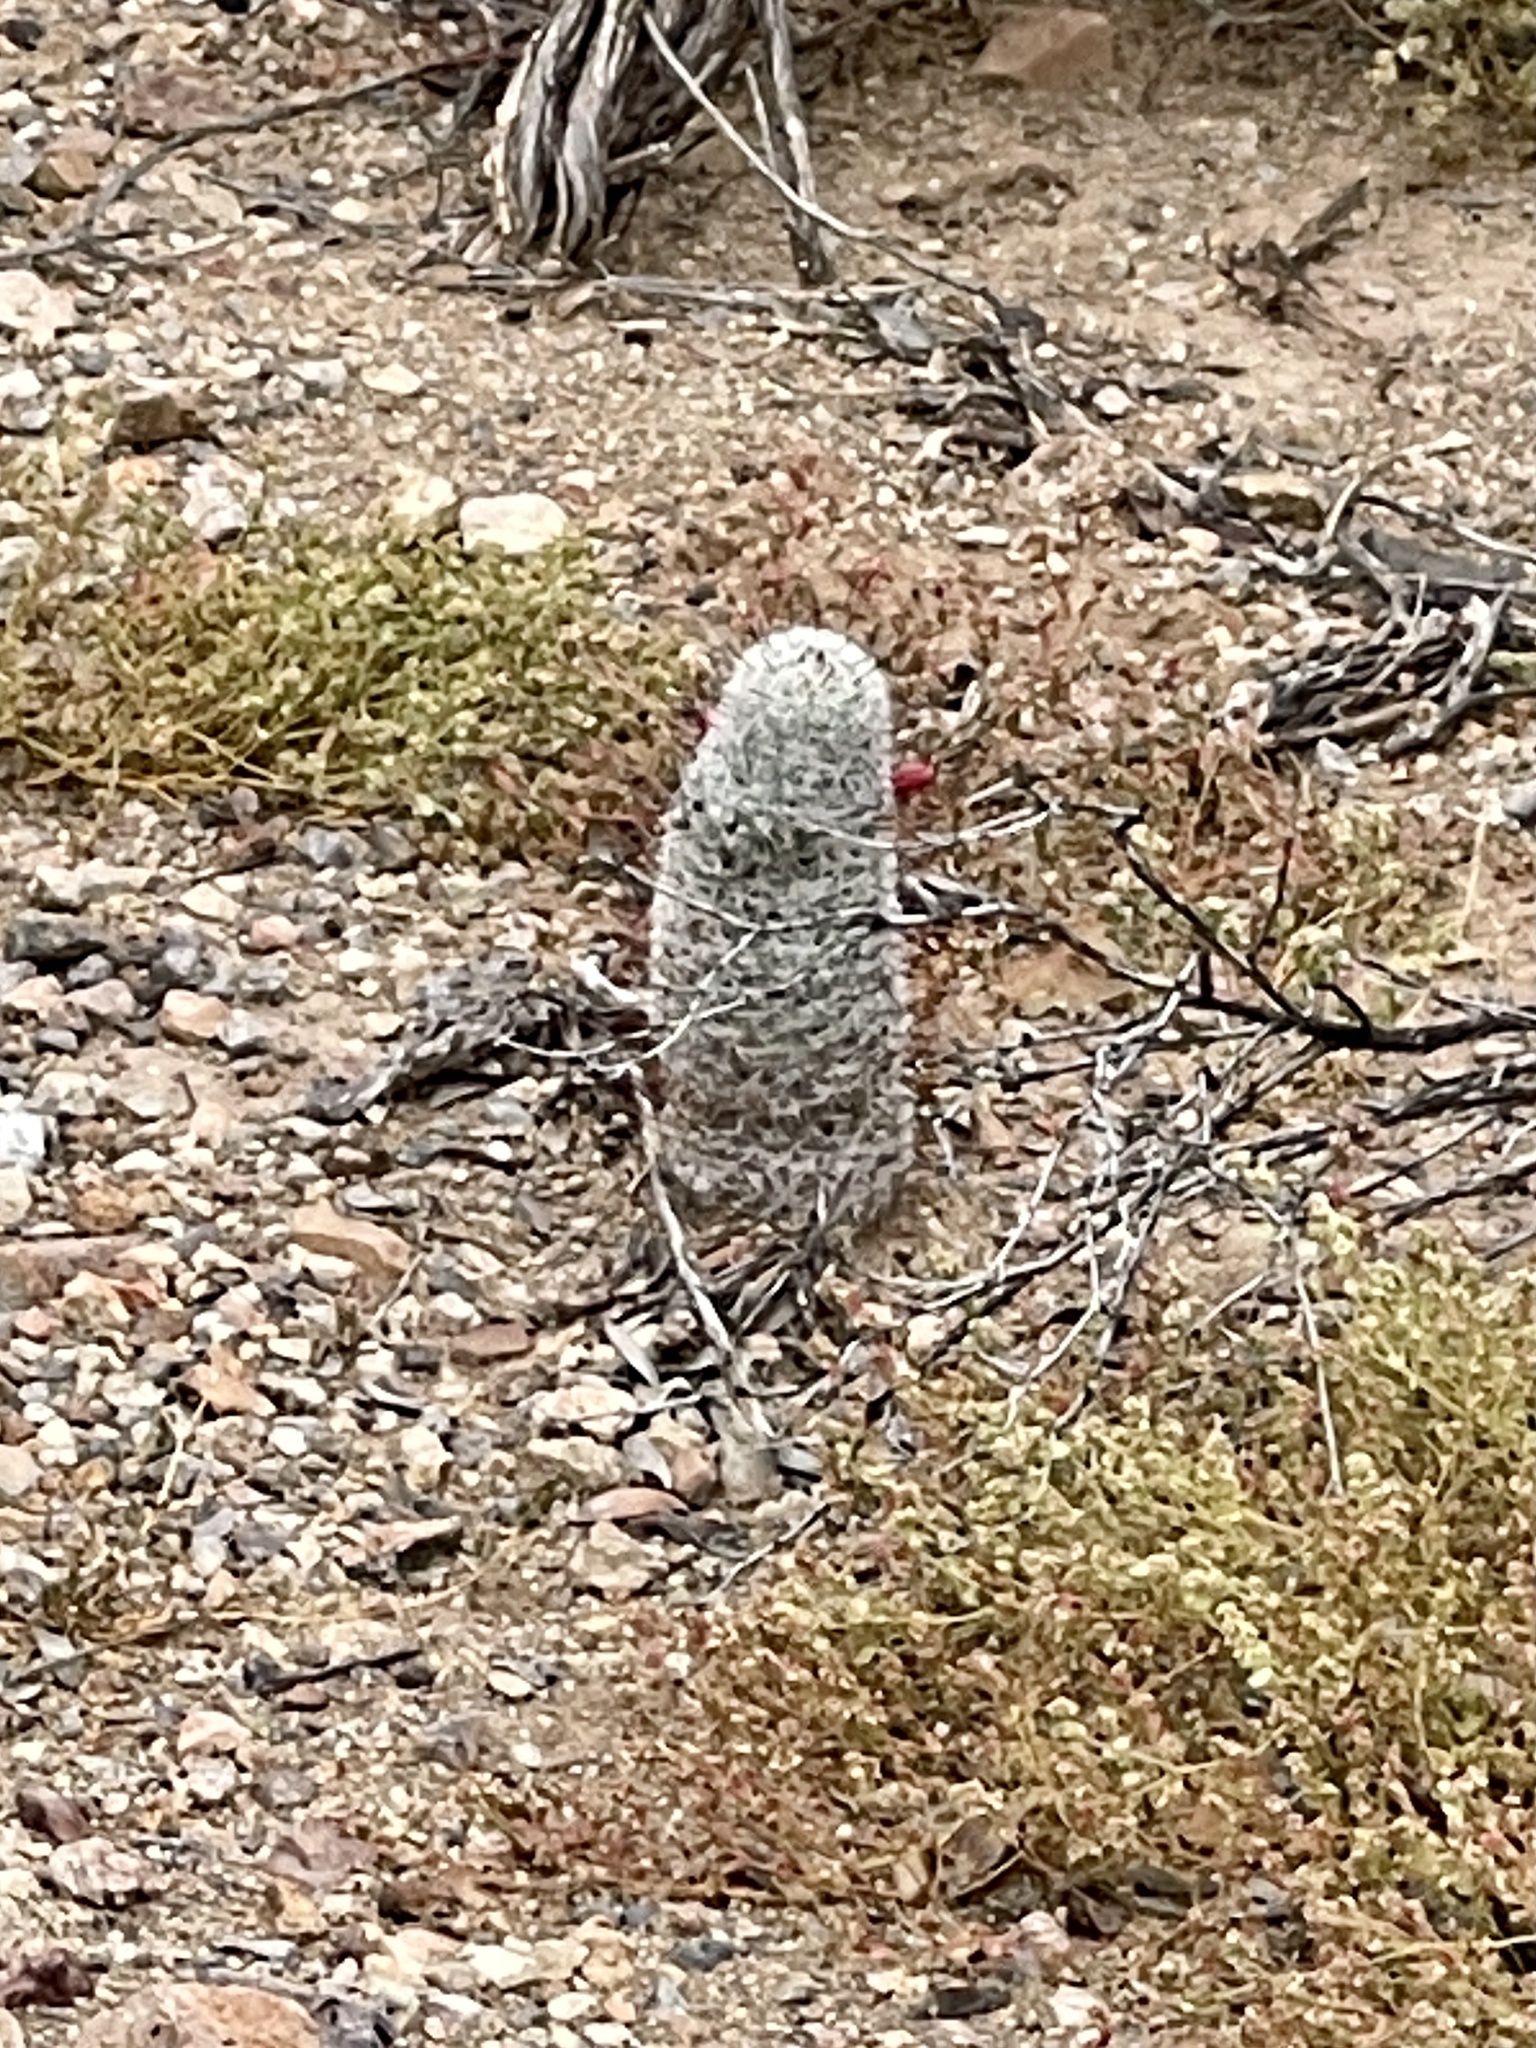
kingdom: Plantae
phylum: Tracheophyta
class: Magnoliopsida
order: Caryophyllales
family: Cactaceae
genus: Cochemiea
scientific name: Cochemiea grahamii
